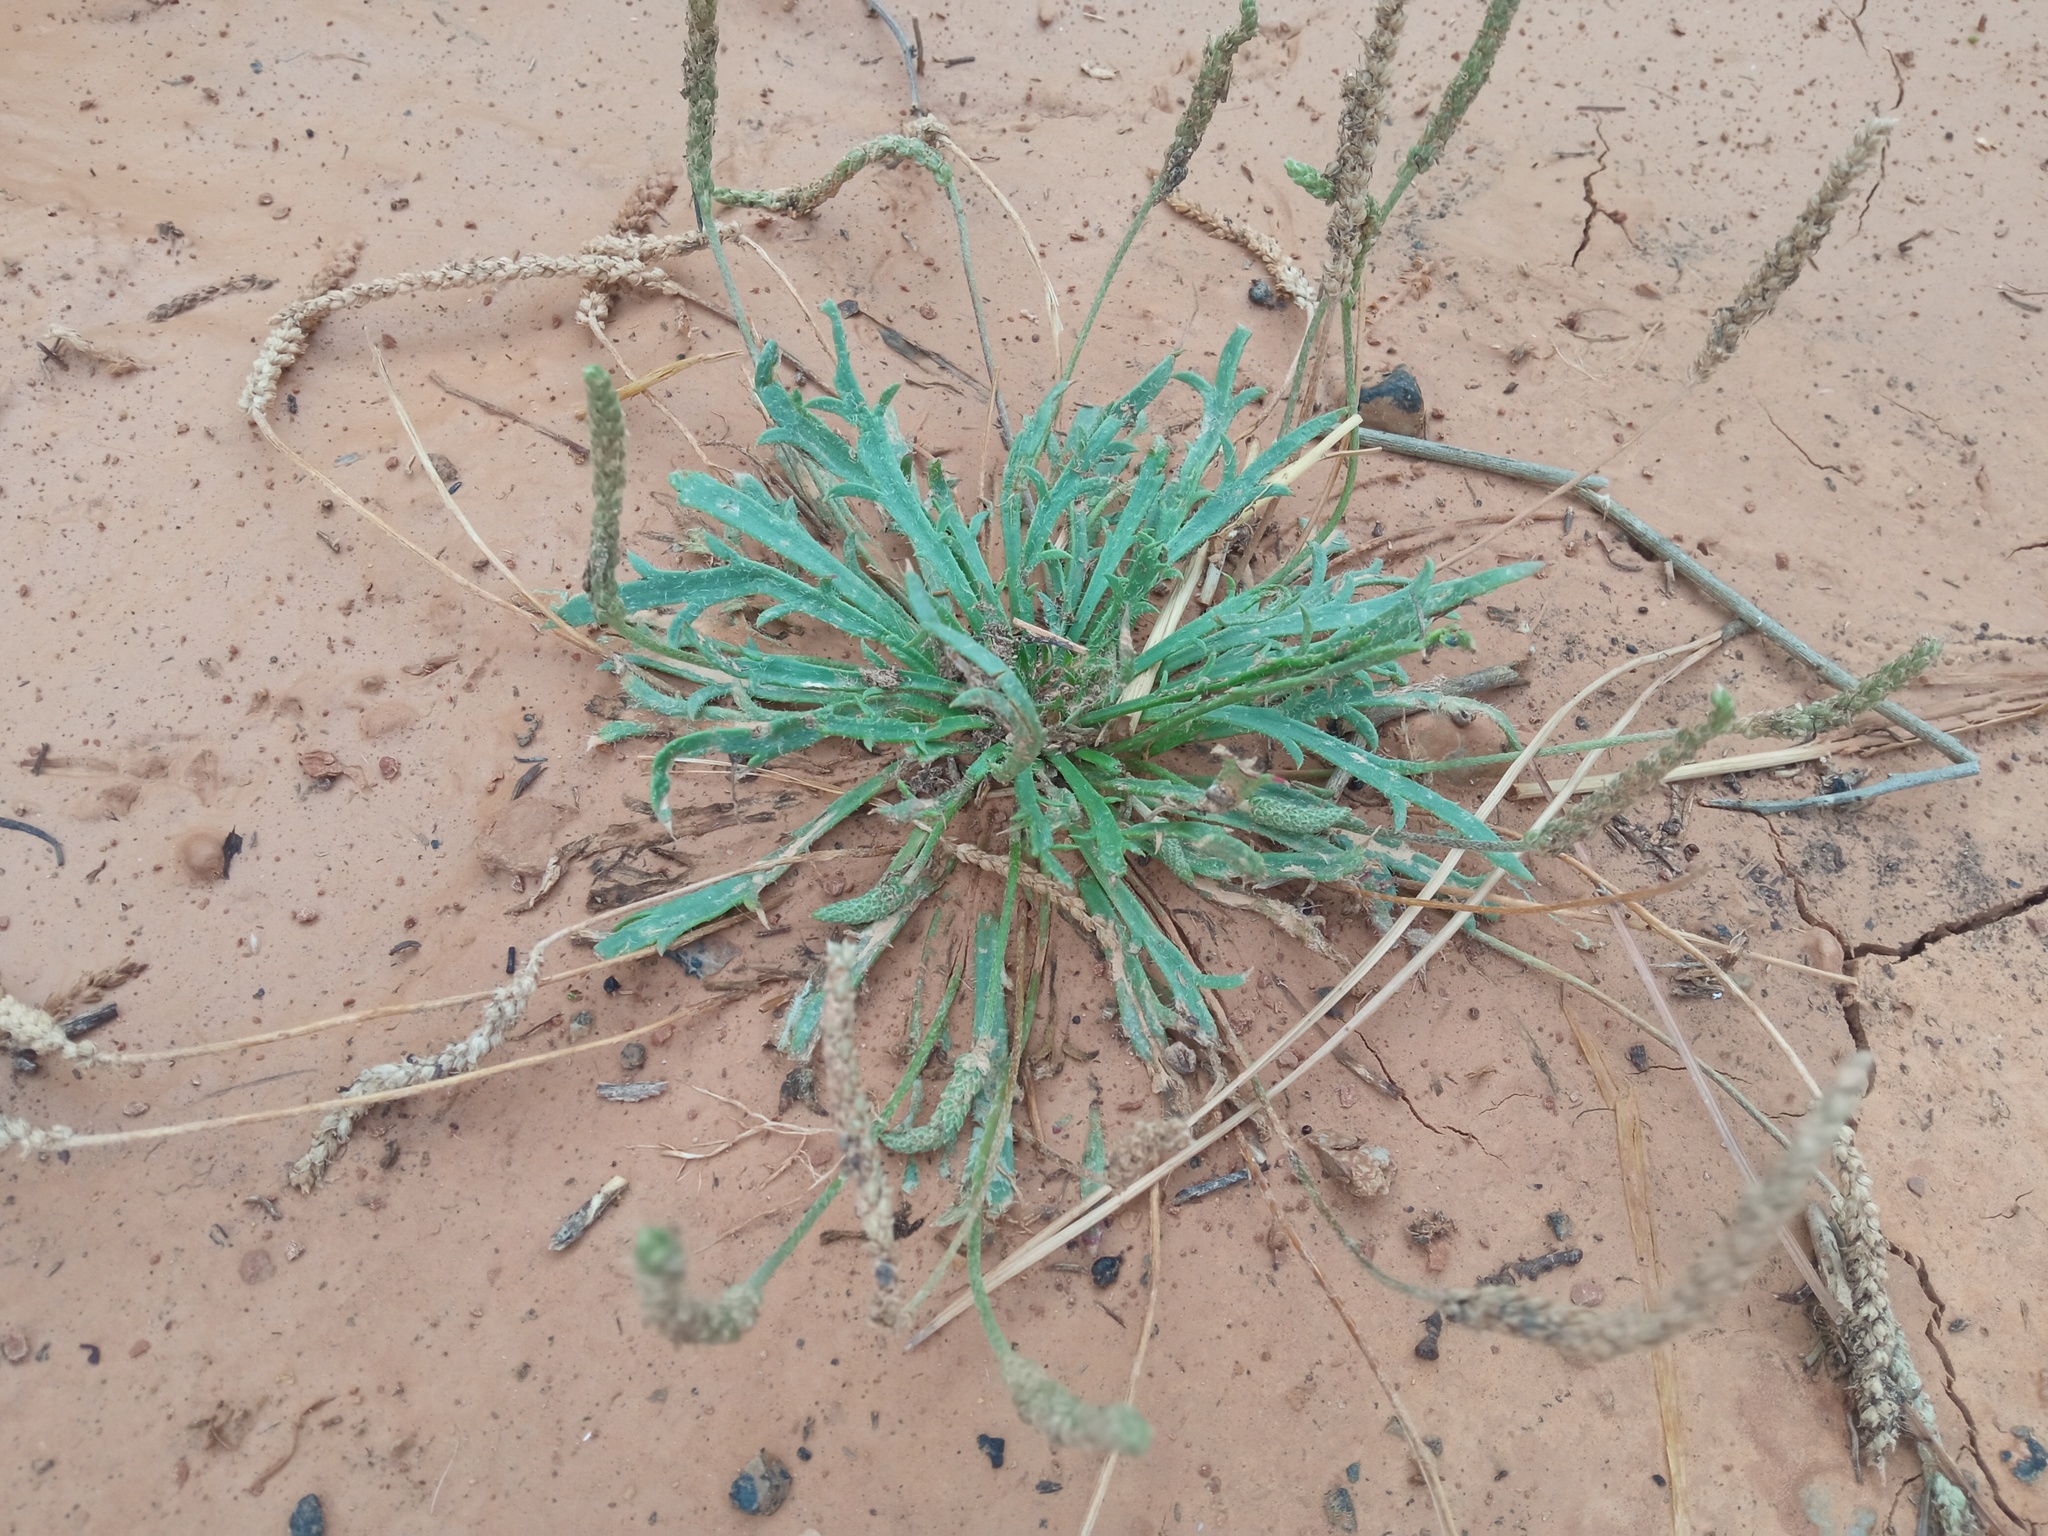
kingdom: Plantae
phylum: Tracheophyta
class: Magnoliopsida
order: Lamiales
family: Plantaginaceae
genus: Plantago
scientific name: Plantago coronopus
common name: Buck's-horn plantain
